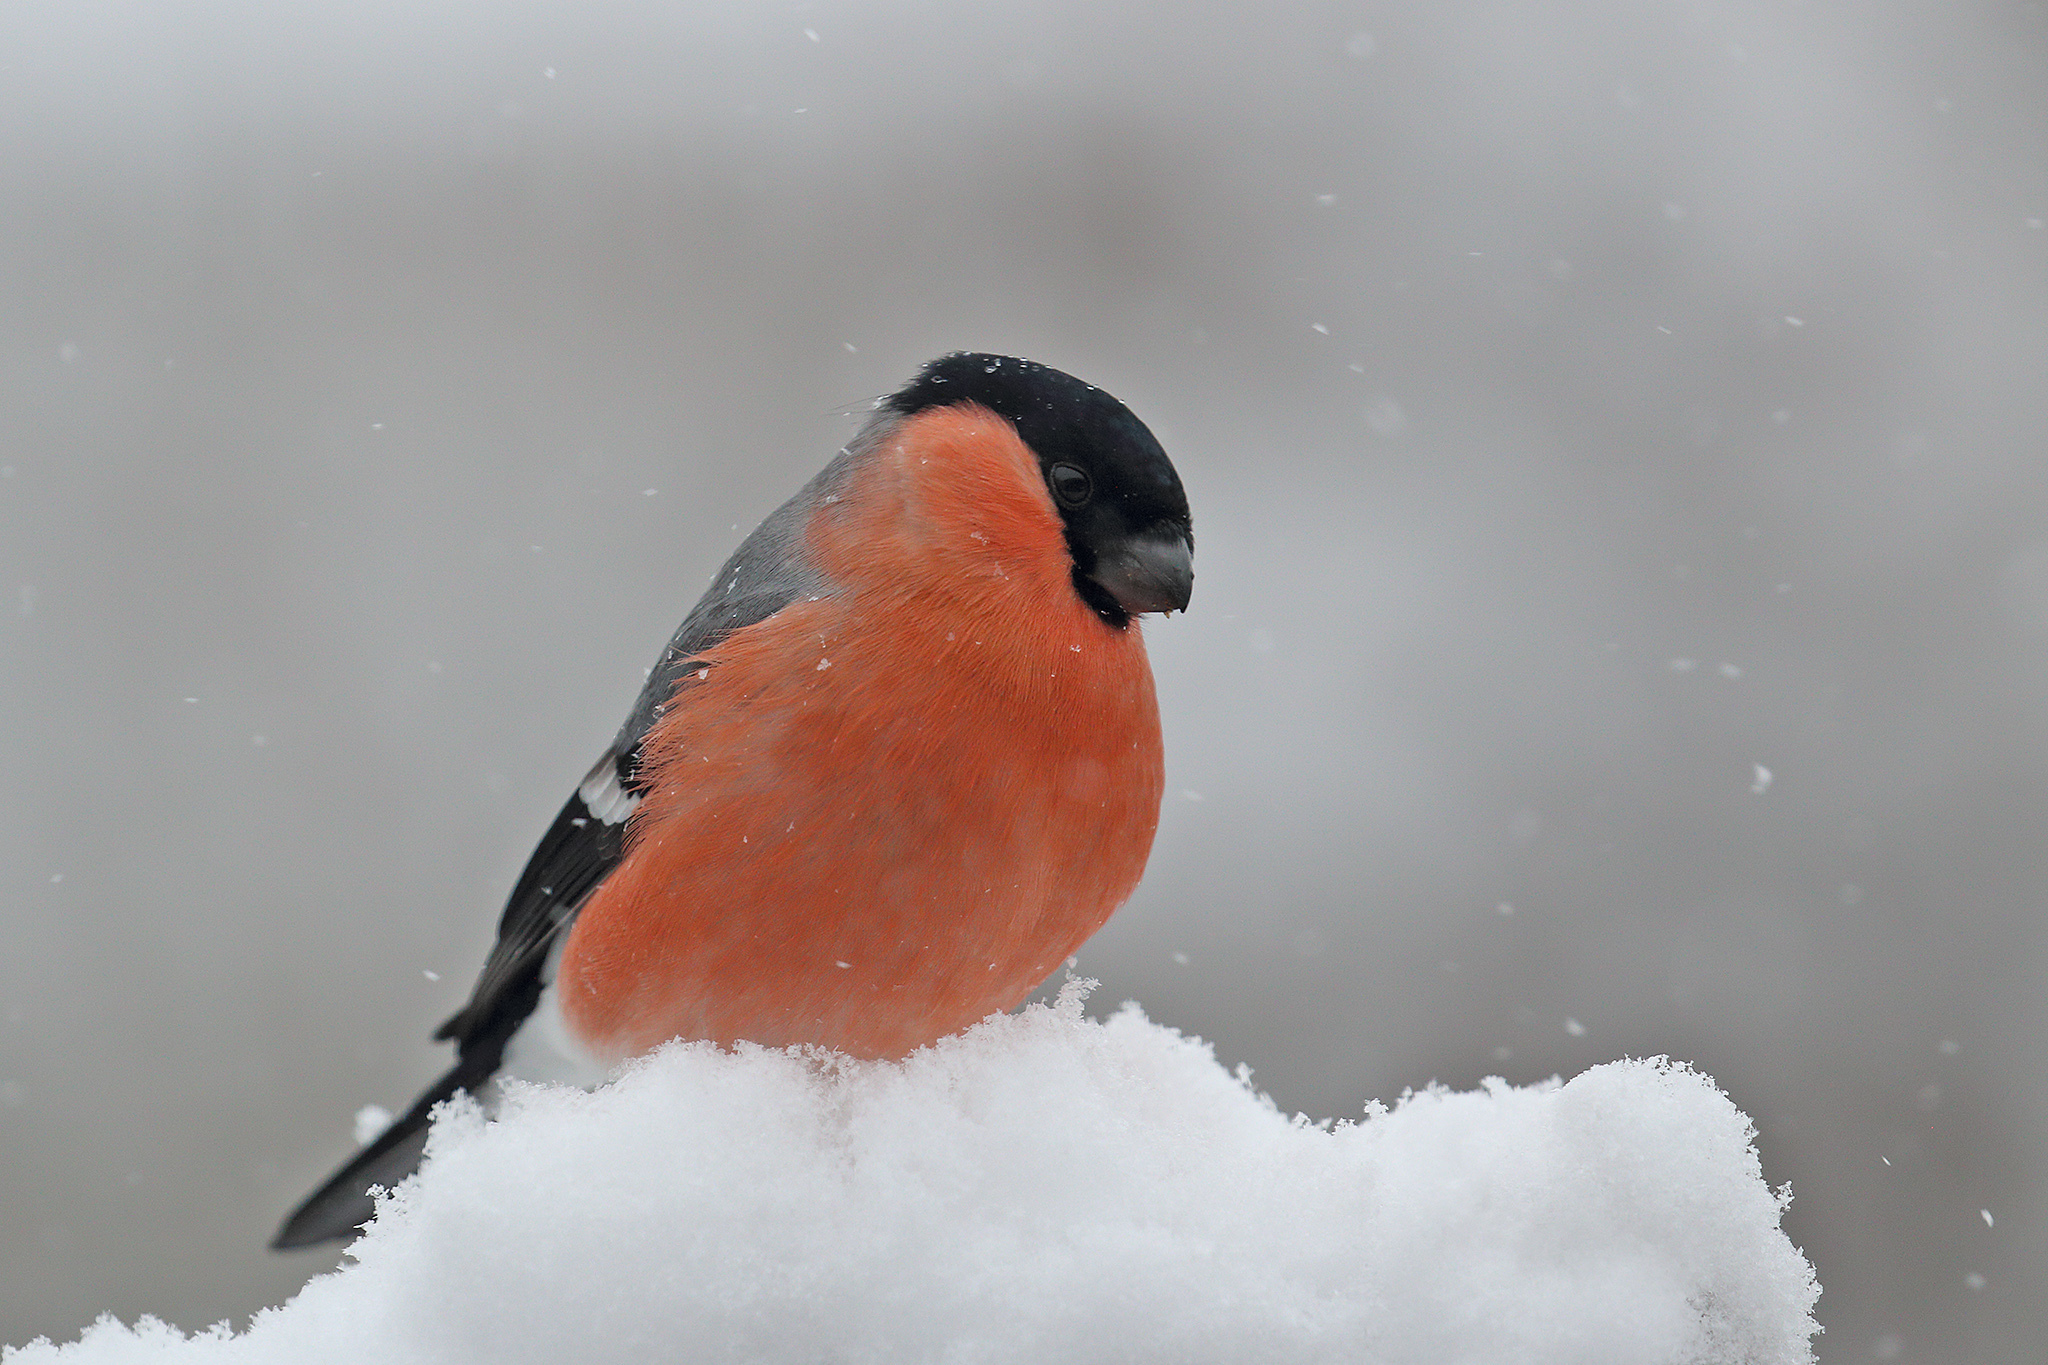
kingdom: Animalia
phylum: Chordata
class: Aves
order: Passeriformes
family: Fringillidae
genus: Pyrrhula
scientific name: Pyrrhula pyrrhula
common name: Eurasian bullfinch
